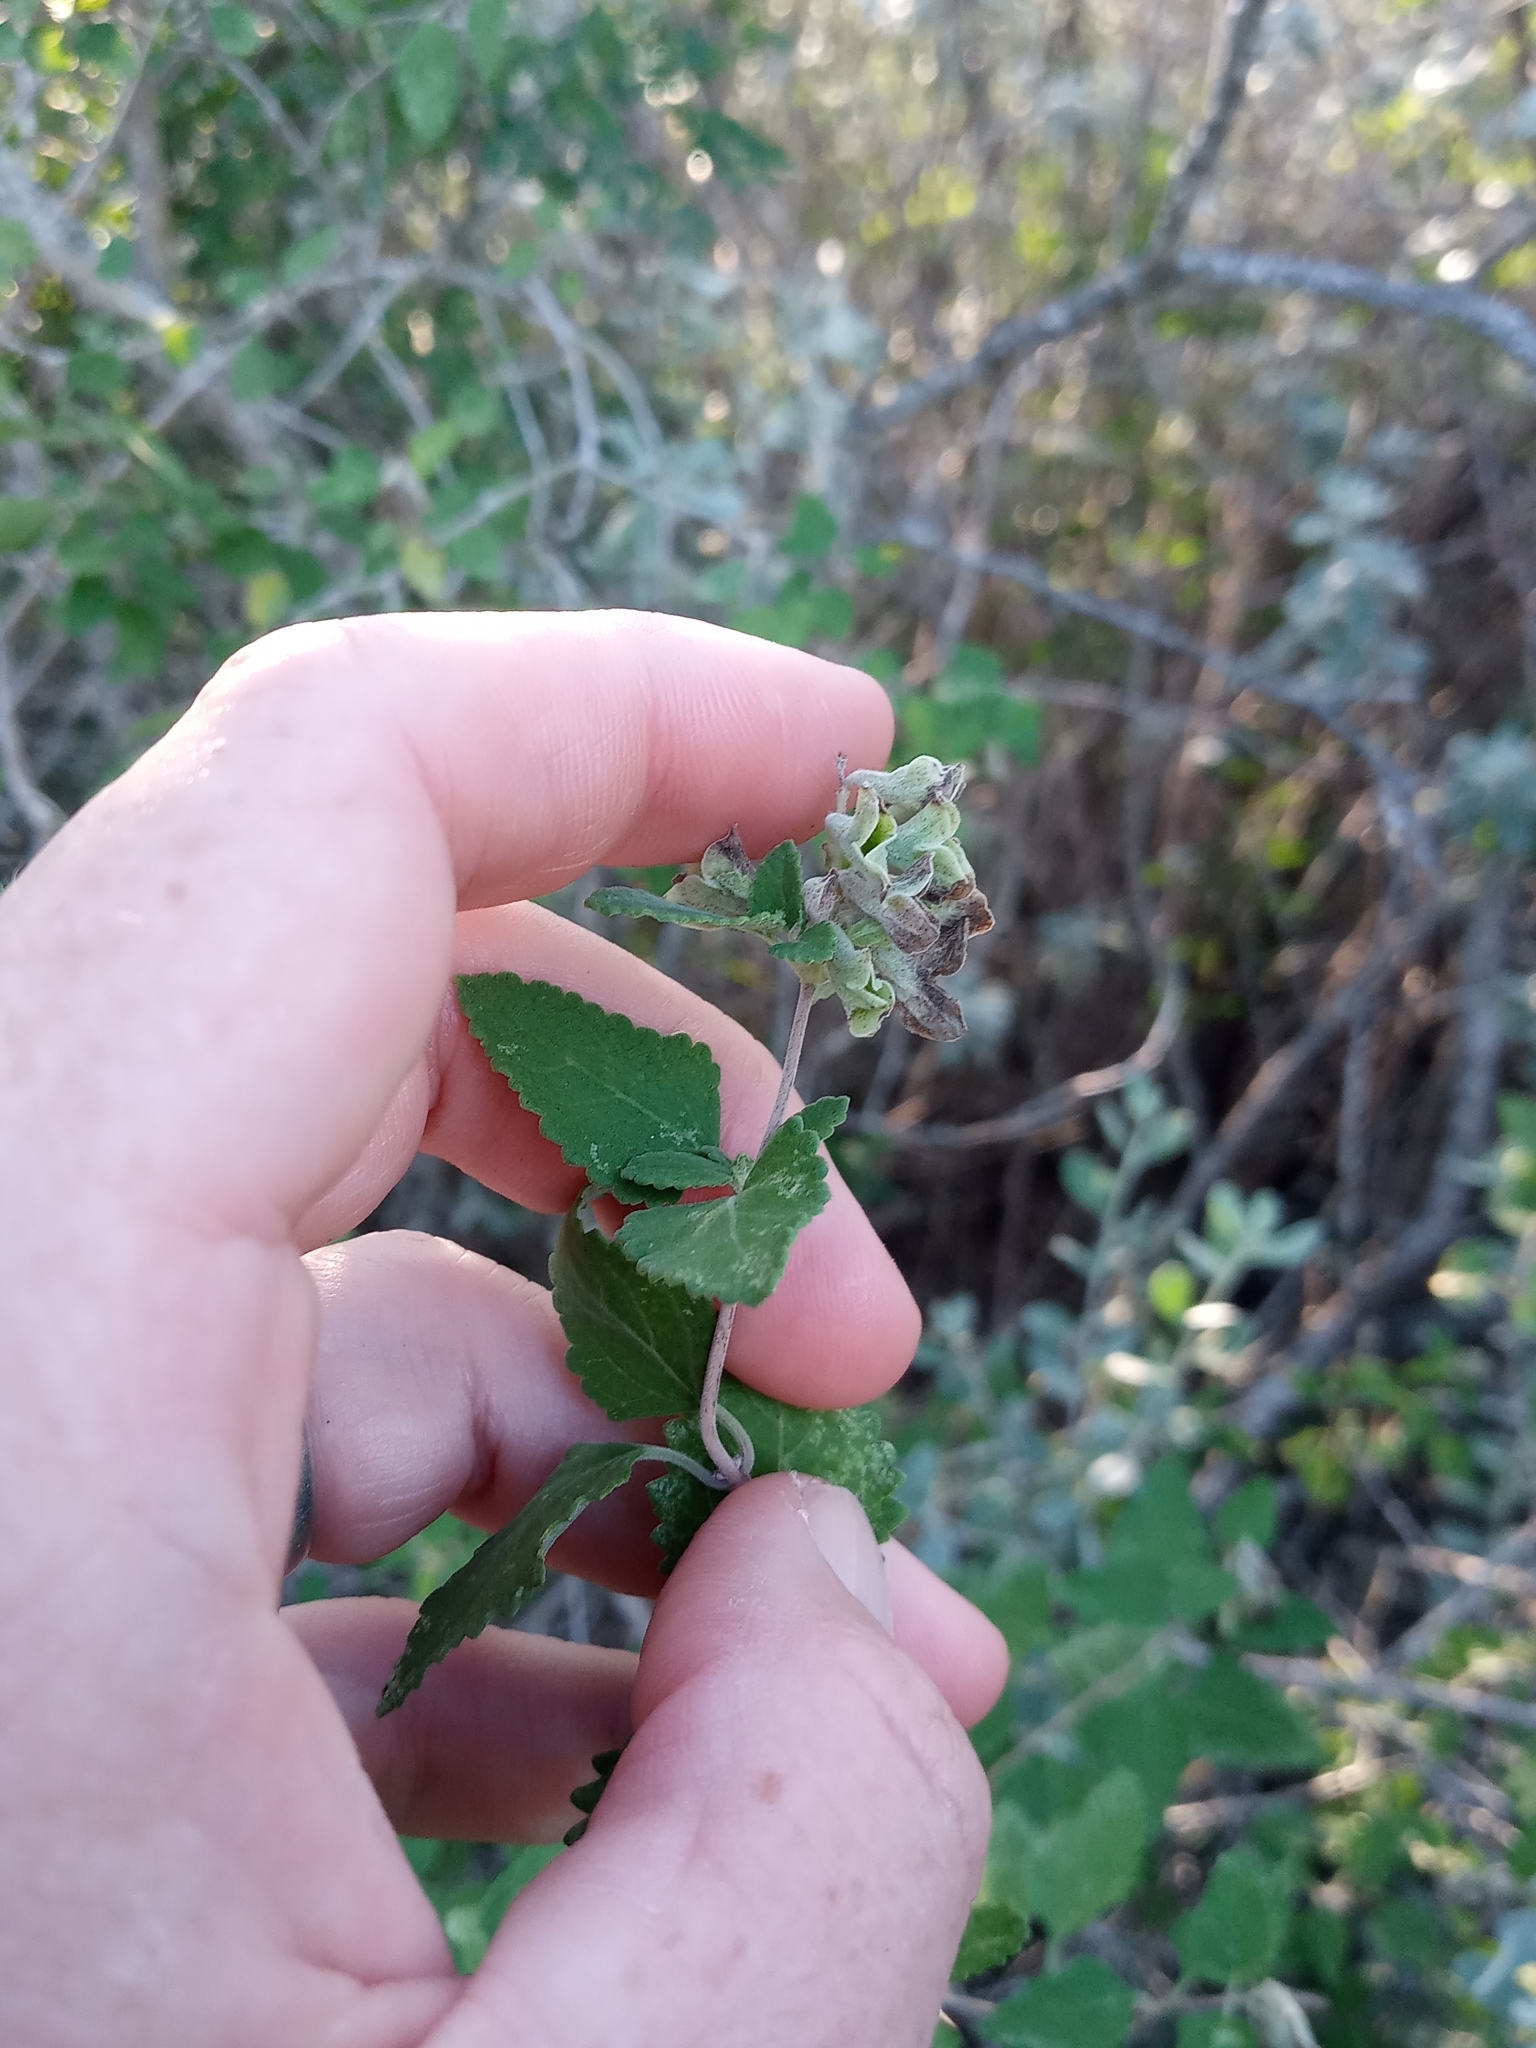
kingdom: Plantae
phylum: Tracheophyta
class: Magnoliopsida
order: Lamiales
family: Lamiaceae
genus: Salvia
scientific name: Salvia ballotiflora
